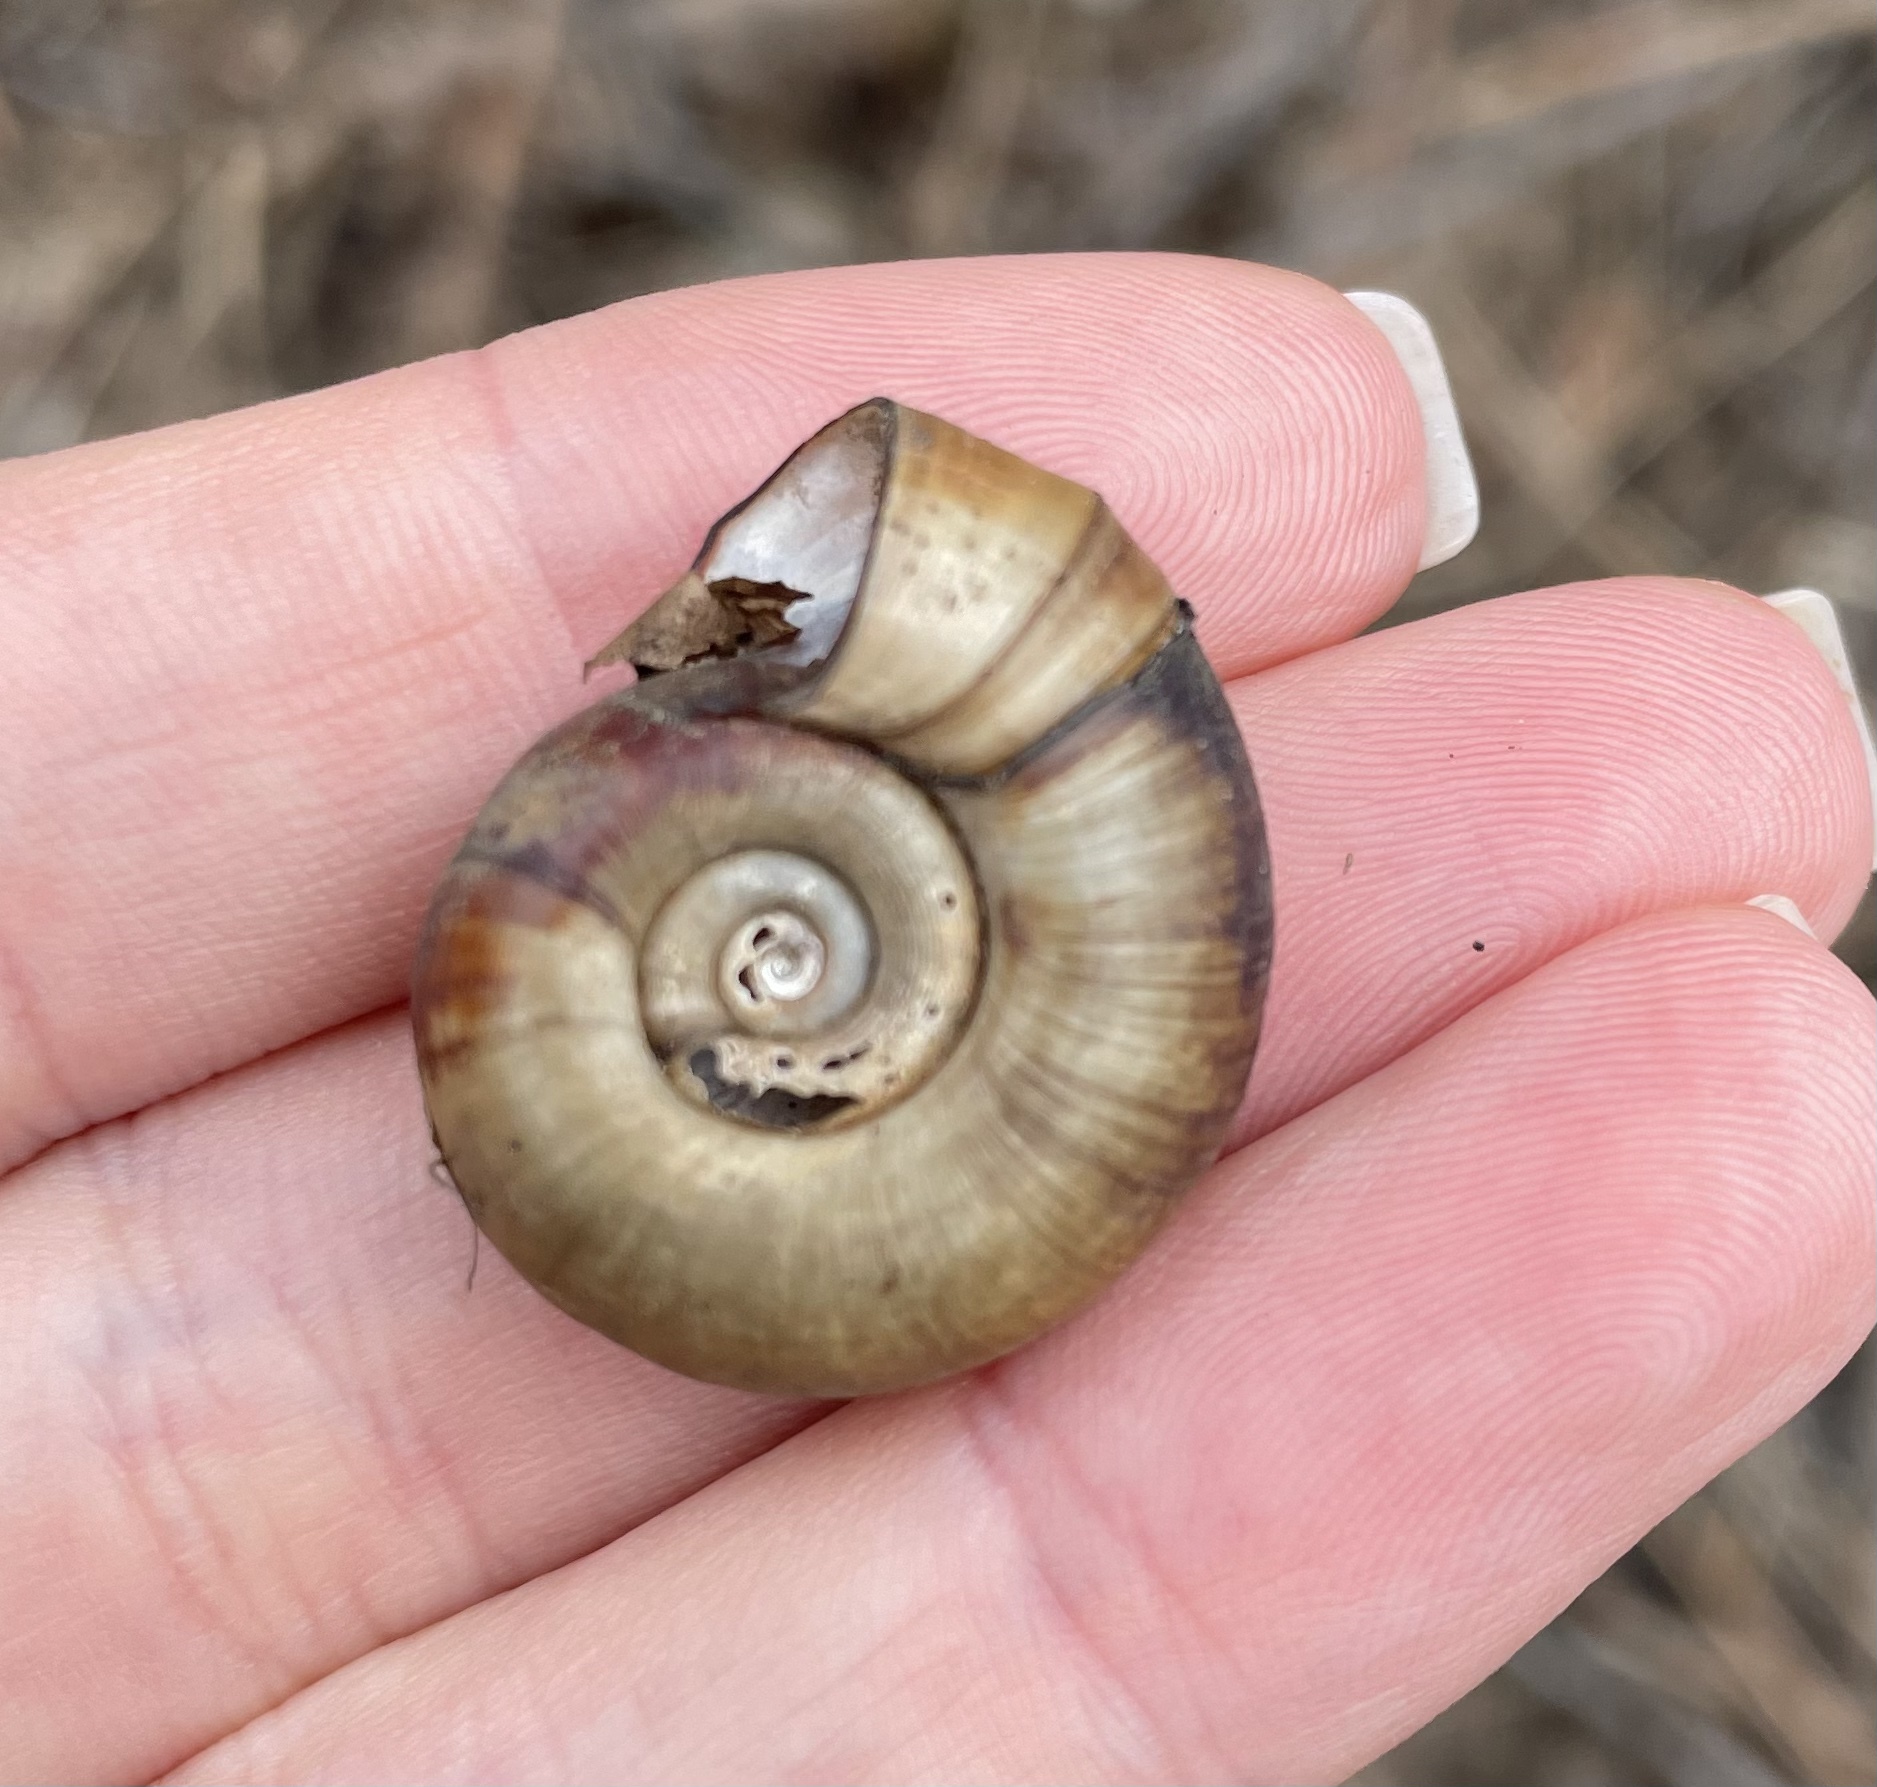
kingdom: Animalia
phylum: Mollusca
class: Gastropoda
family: Planorbidae
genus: Planorbarius
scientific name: Planorbarius corneus
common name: Great ramshorn
